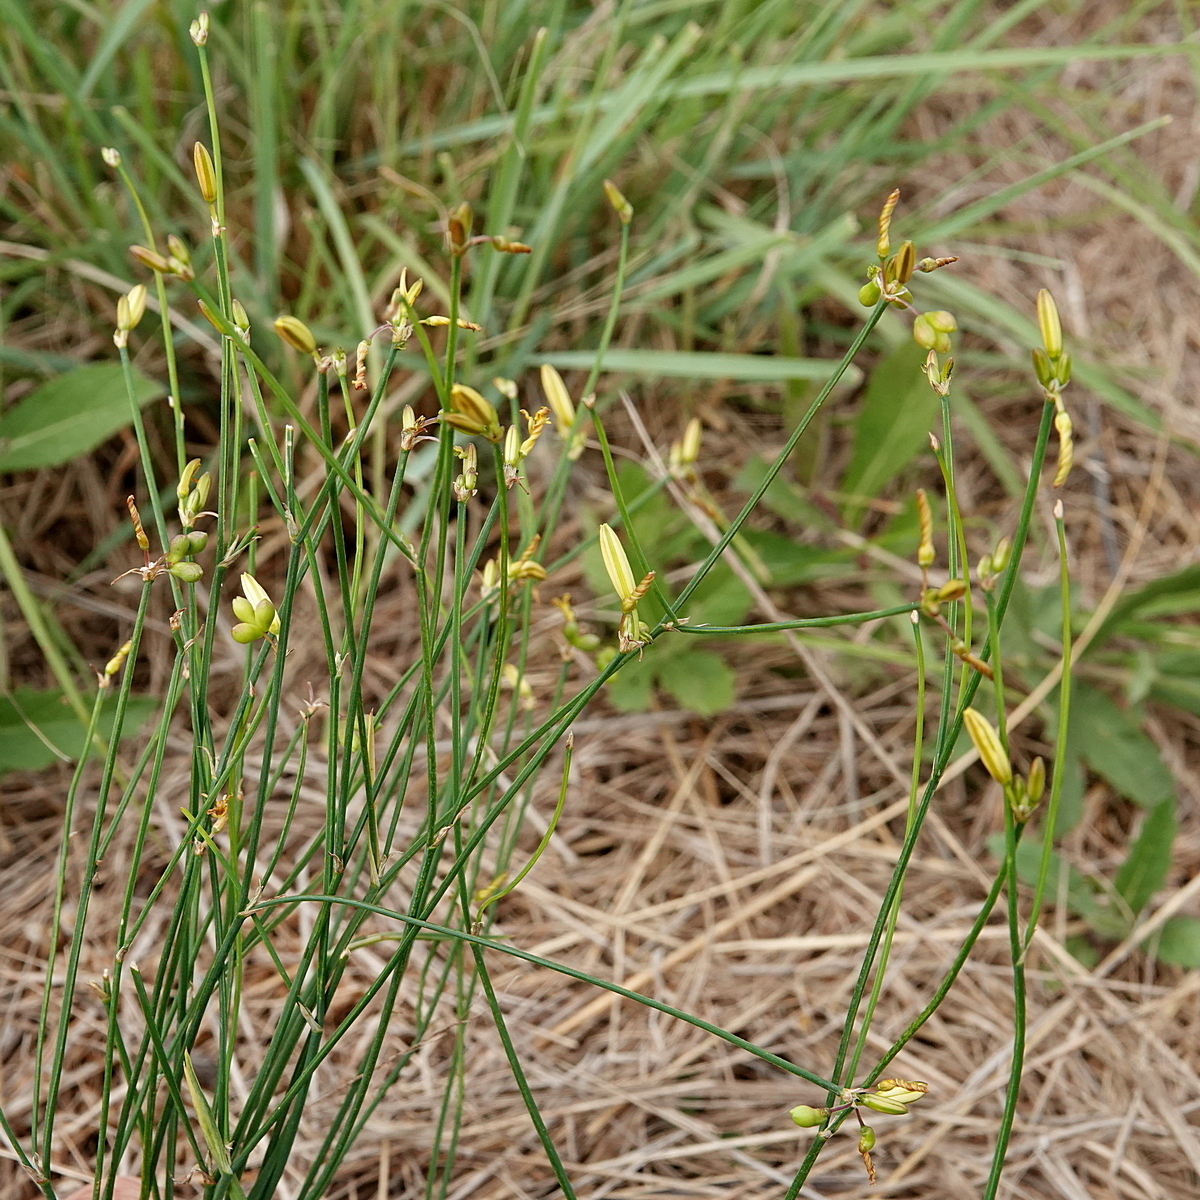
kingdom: Plantae
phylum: Tracheophyta
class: Liliopsida
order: Asparagales
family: Asphodelaceae
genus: Tricoryne
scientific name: Tricoryne elatior
